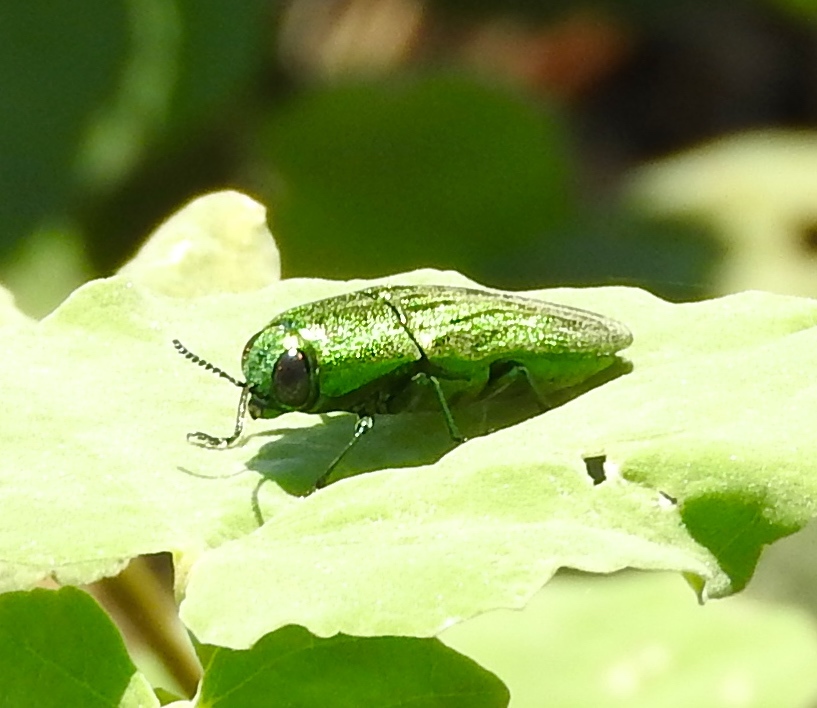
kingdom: Animalia
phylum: Arthropoda
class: Insecta
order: Coleoptera
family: Buprestidae
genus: Agaeocera
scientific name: Agaeocera
